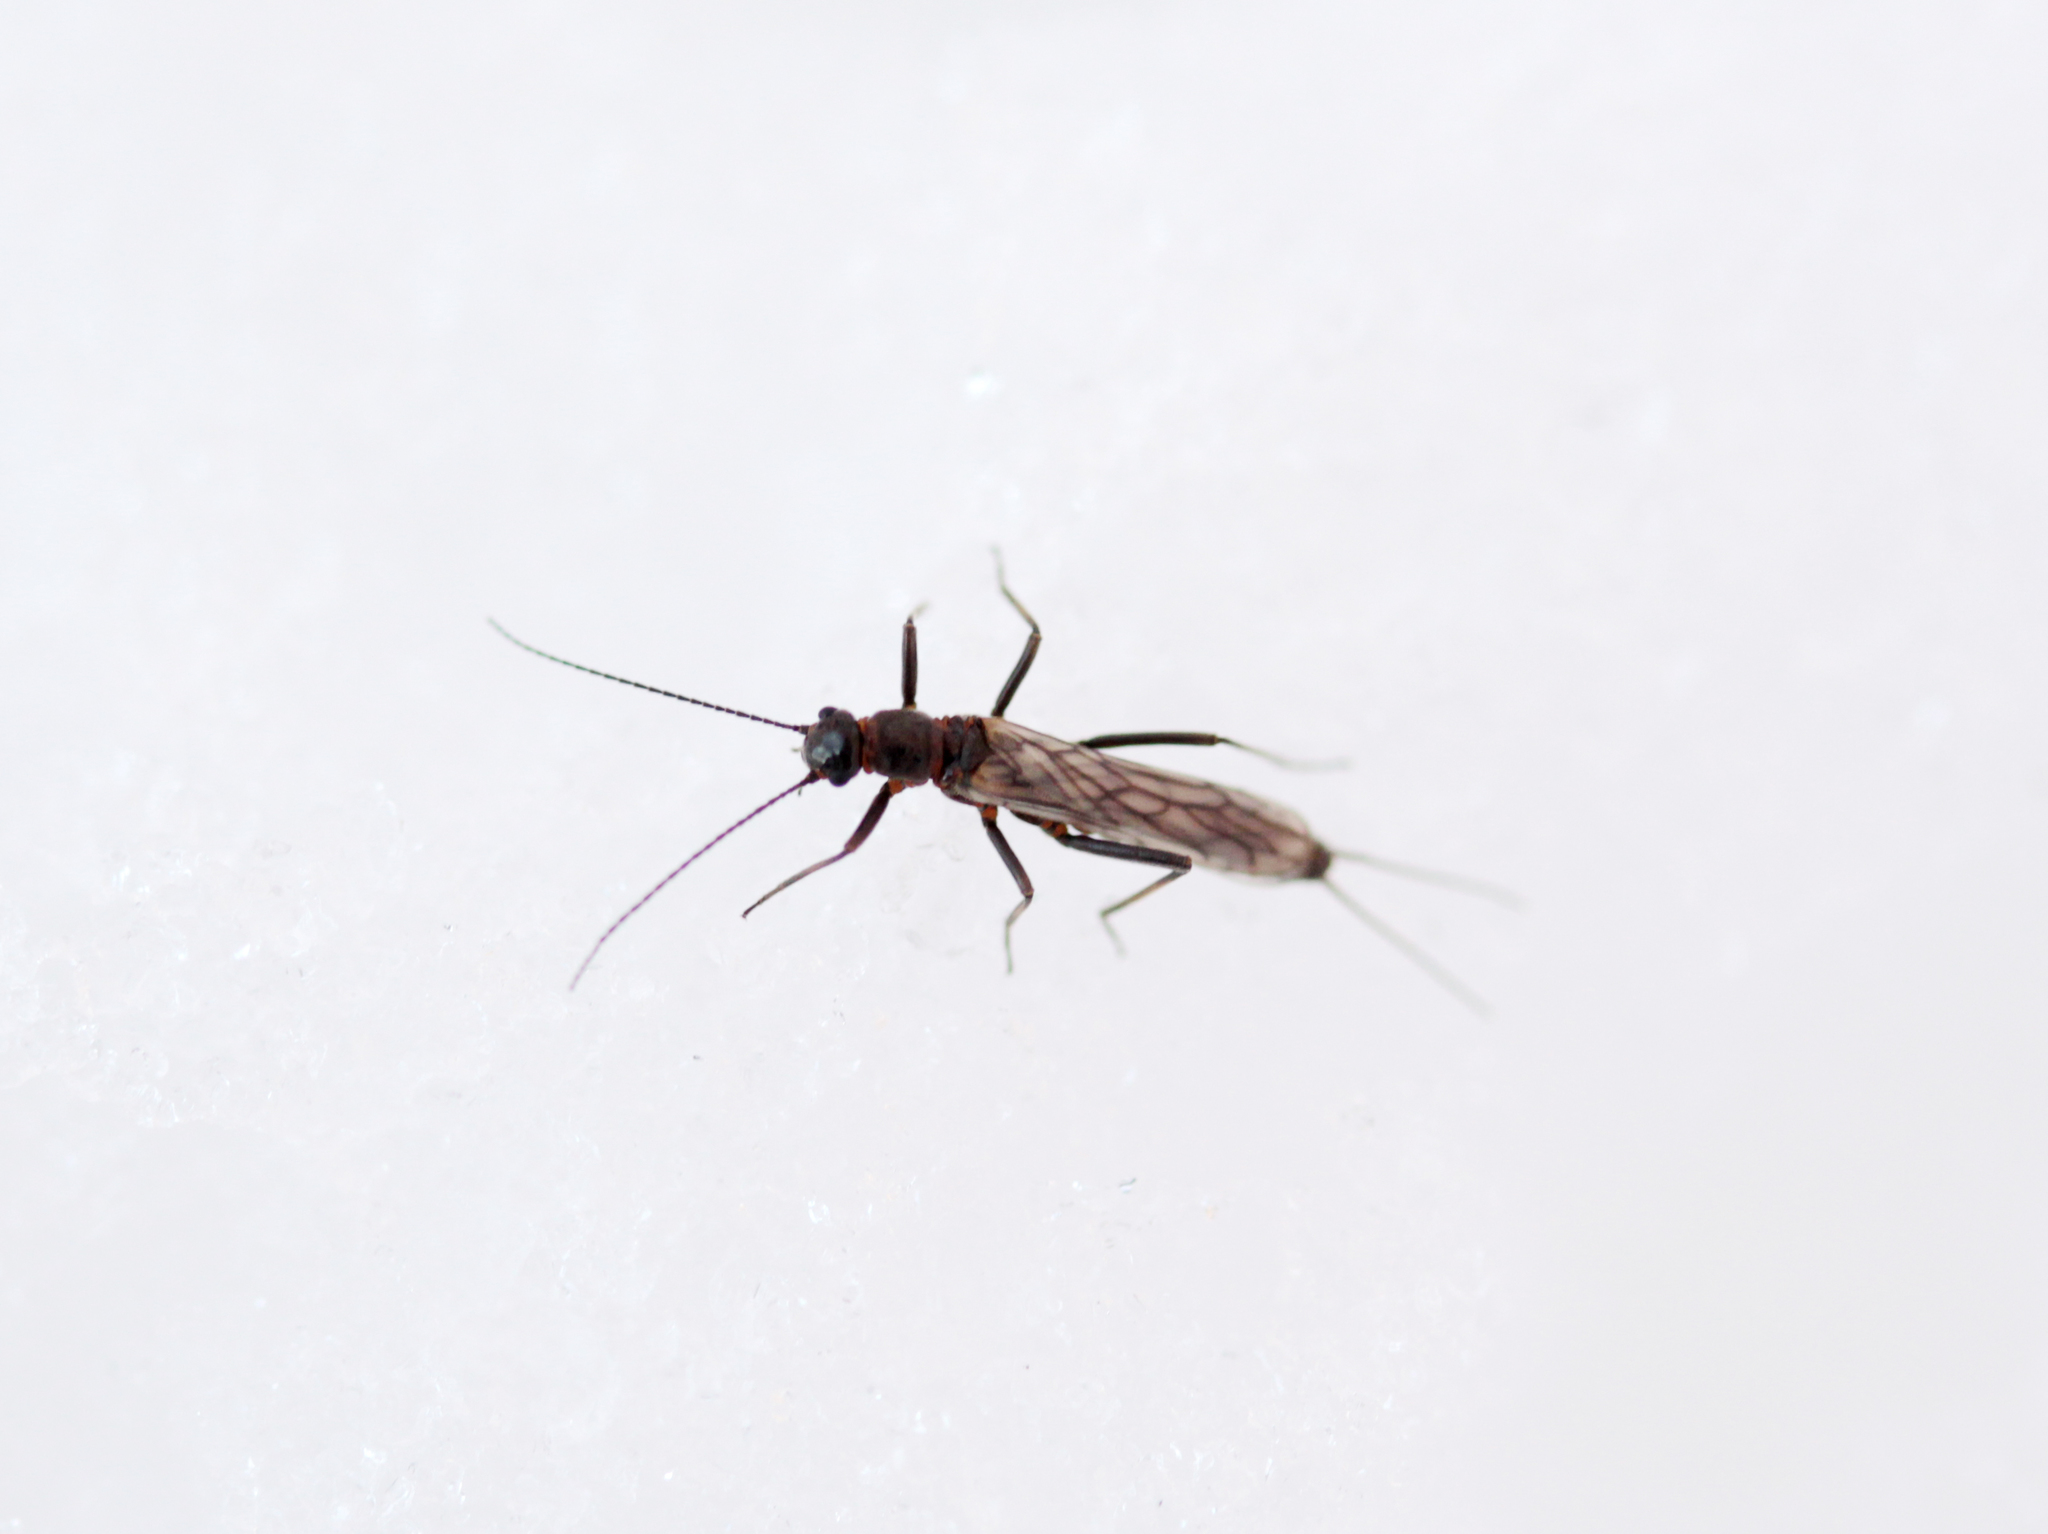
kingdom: Animalia
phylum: Arthropoda
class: Insecta
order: Plecoptera
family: Capniidae
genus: Allocapnia
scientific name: Allocapnia
